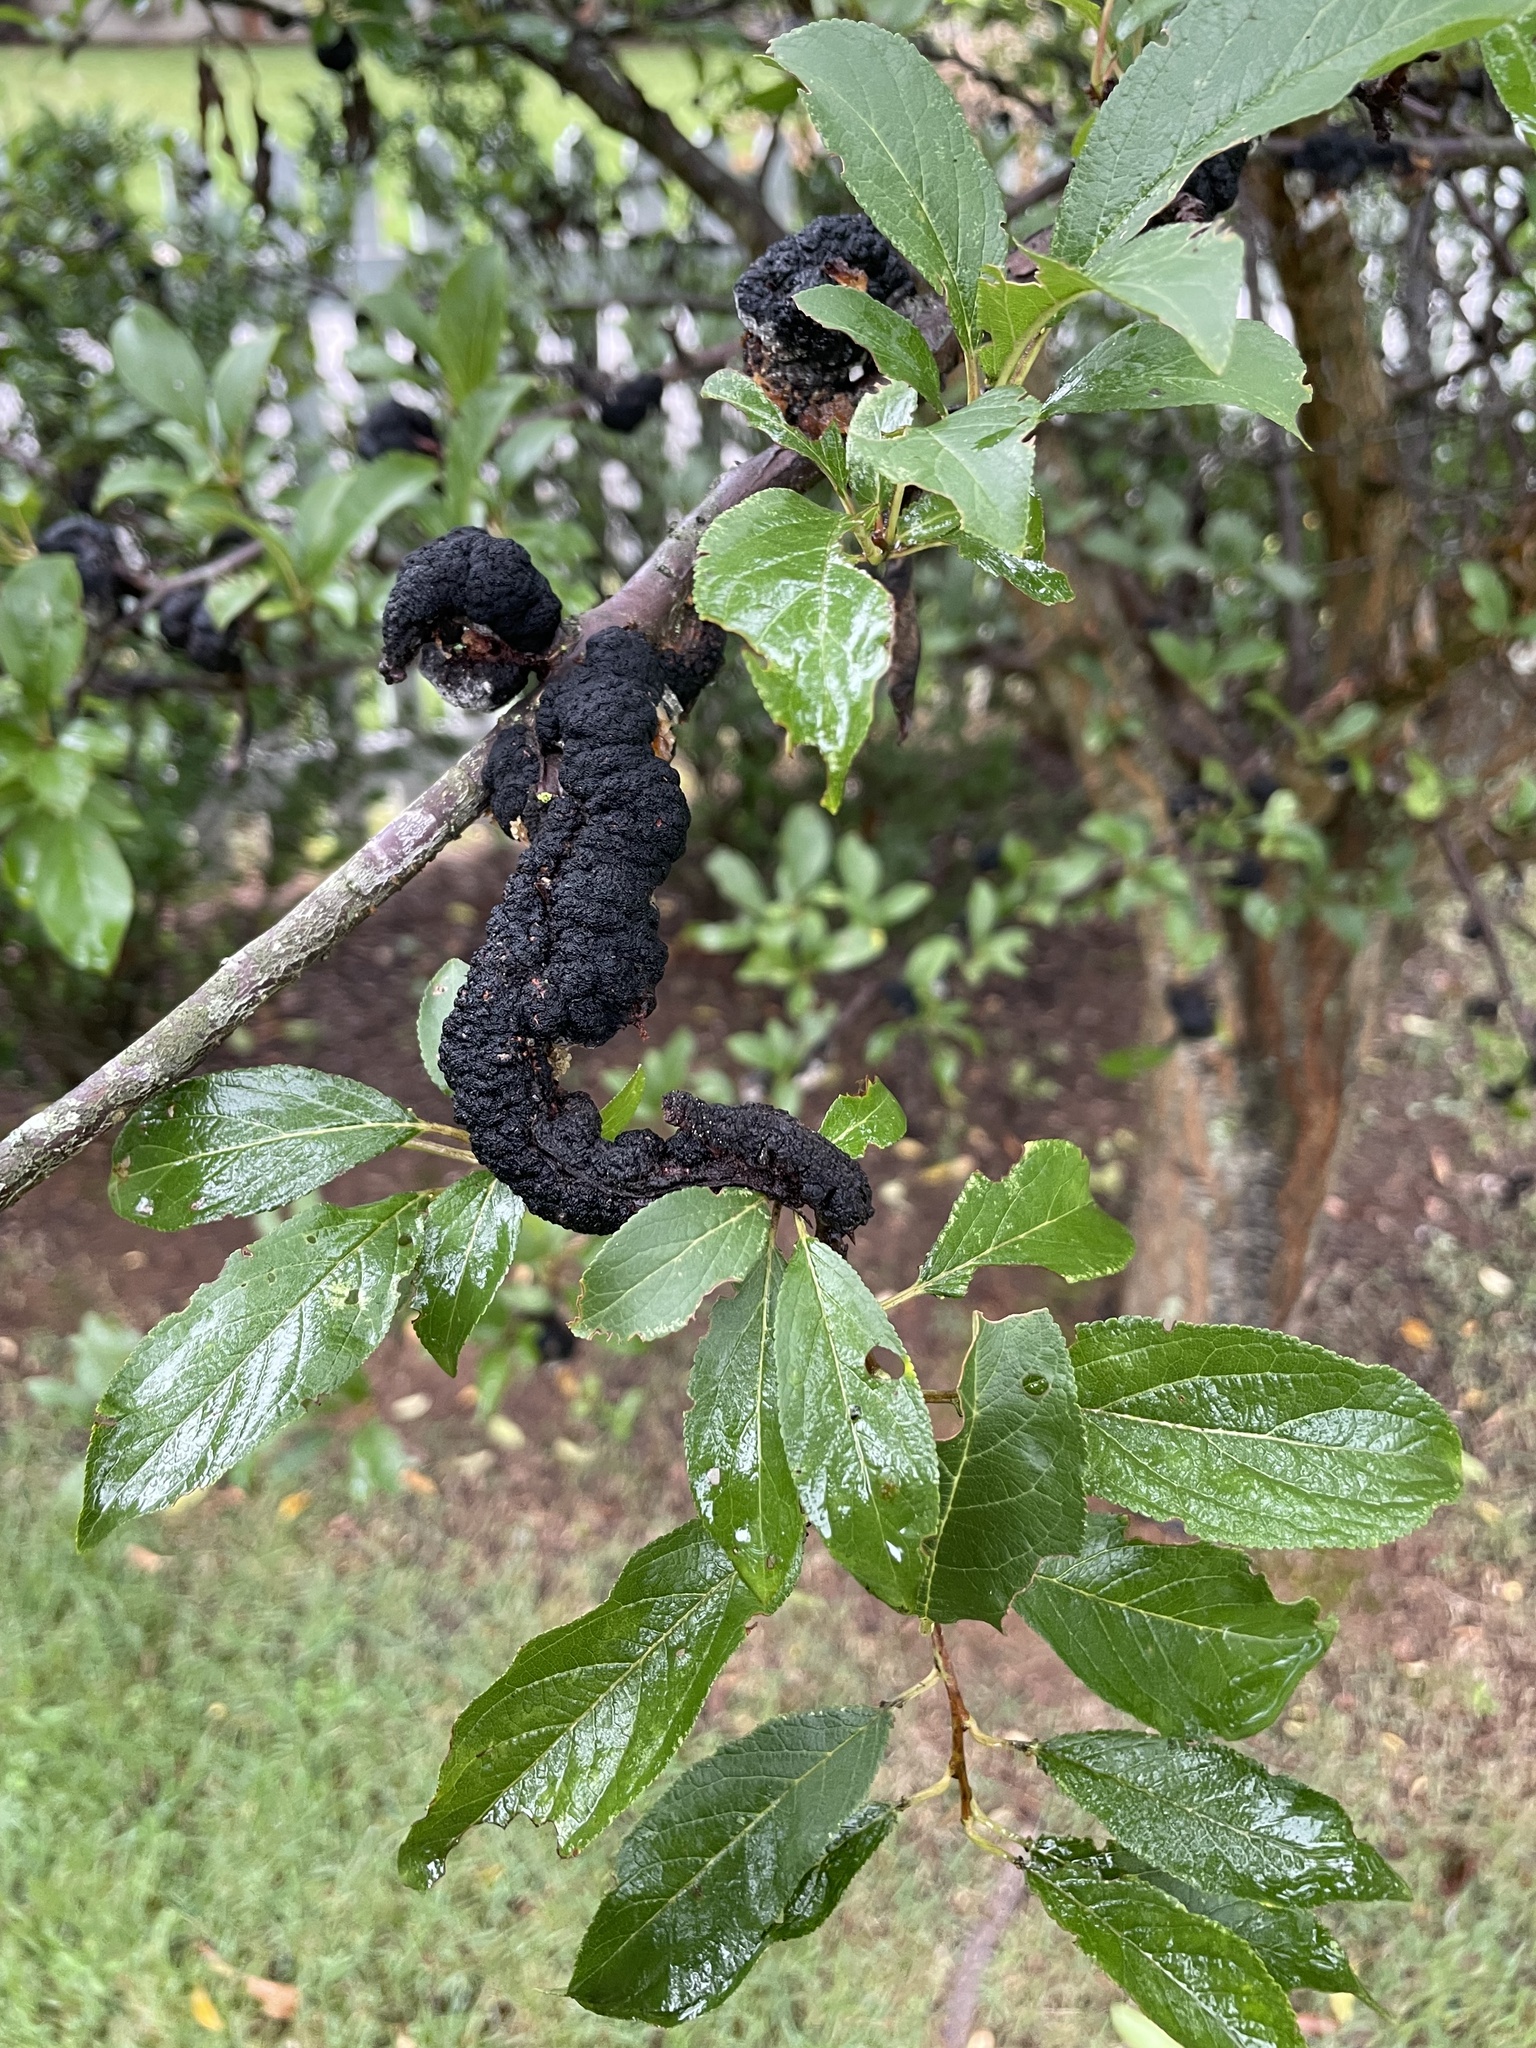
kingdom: Fungi
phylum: Ascomycota
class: Dothideomycetes
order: Venturiales
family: Venturiaceae
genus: Apiosporina
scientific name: Apiosporina morbosa
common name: Black knot
